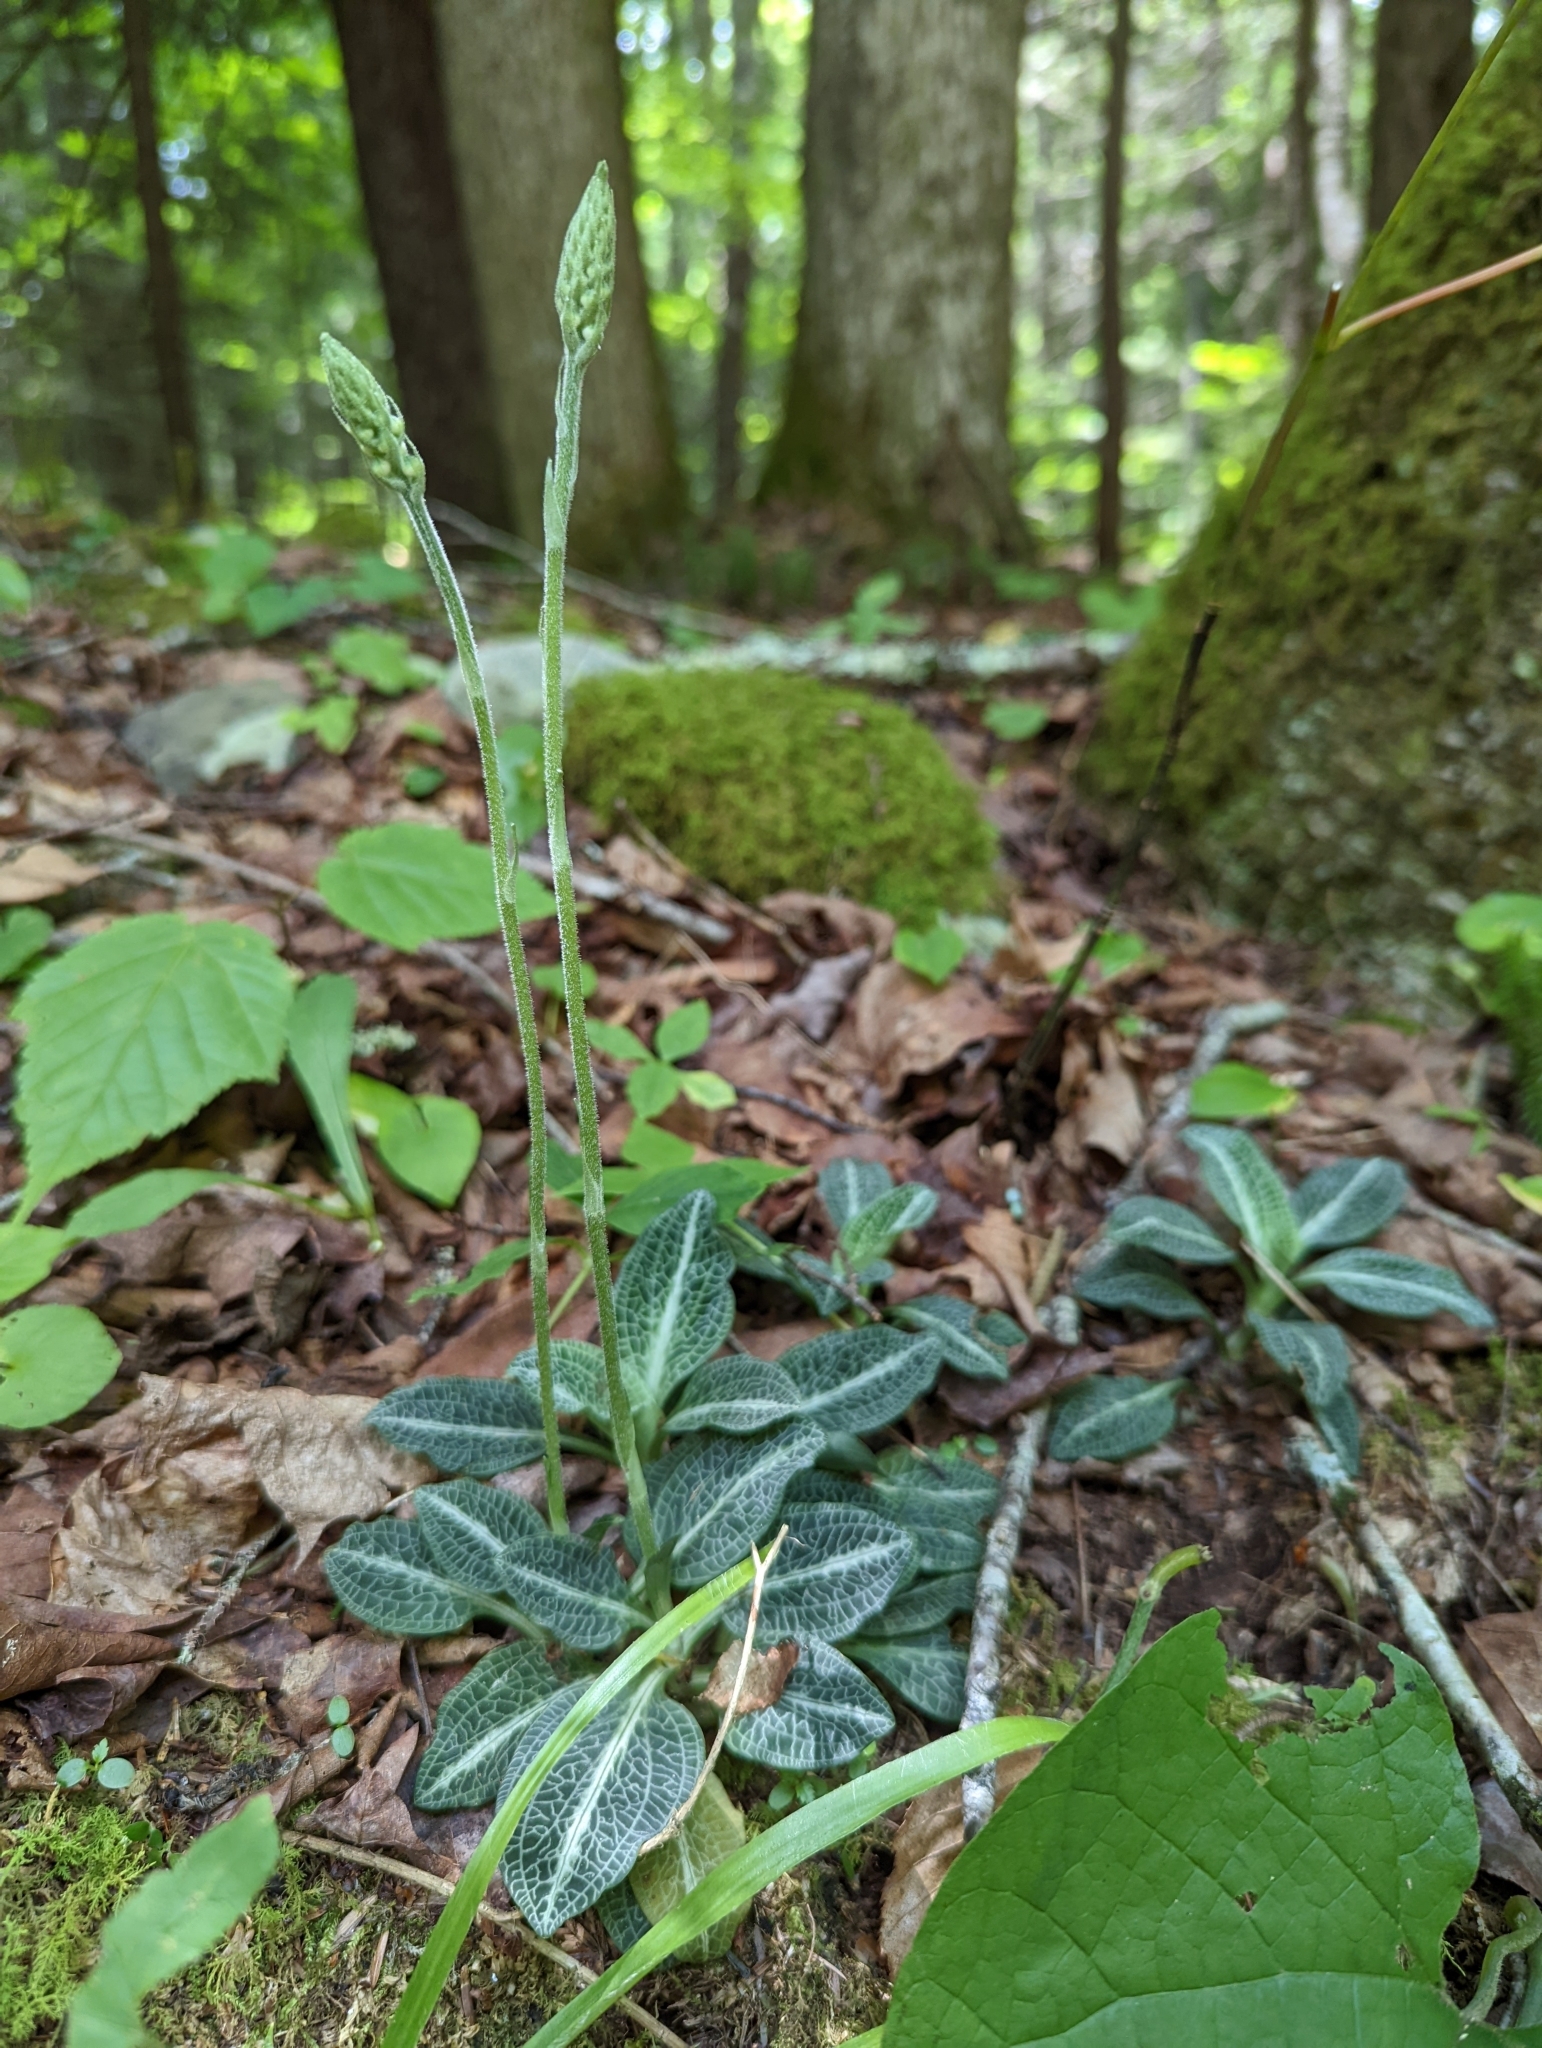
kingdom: Plantae
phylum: Tracheophyta
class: Liliopsida
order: Asparagales
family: Orchidaceae
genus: Goodyera
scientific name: Goodyera pubescens
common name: Downy rattlesnake-plantain
